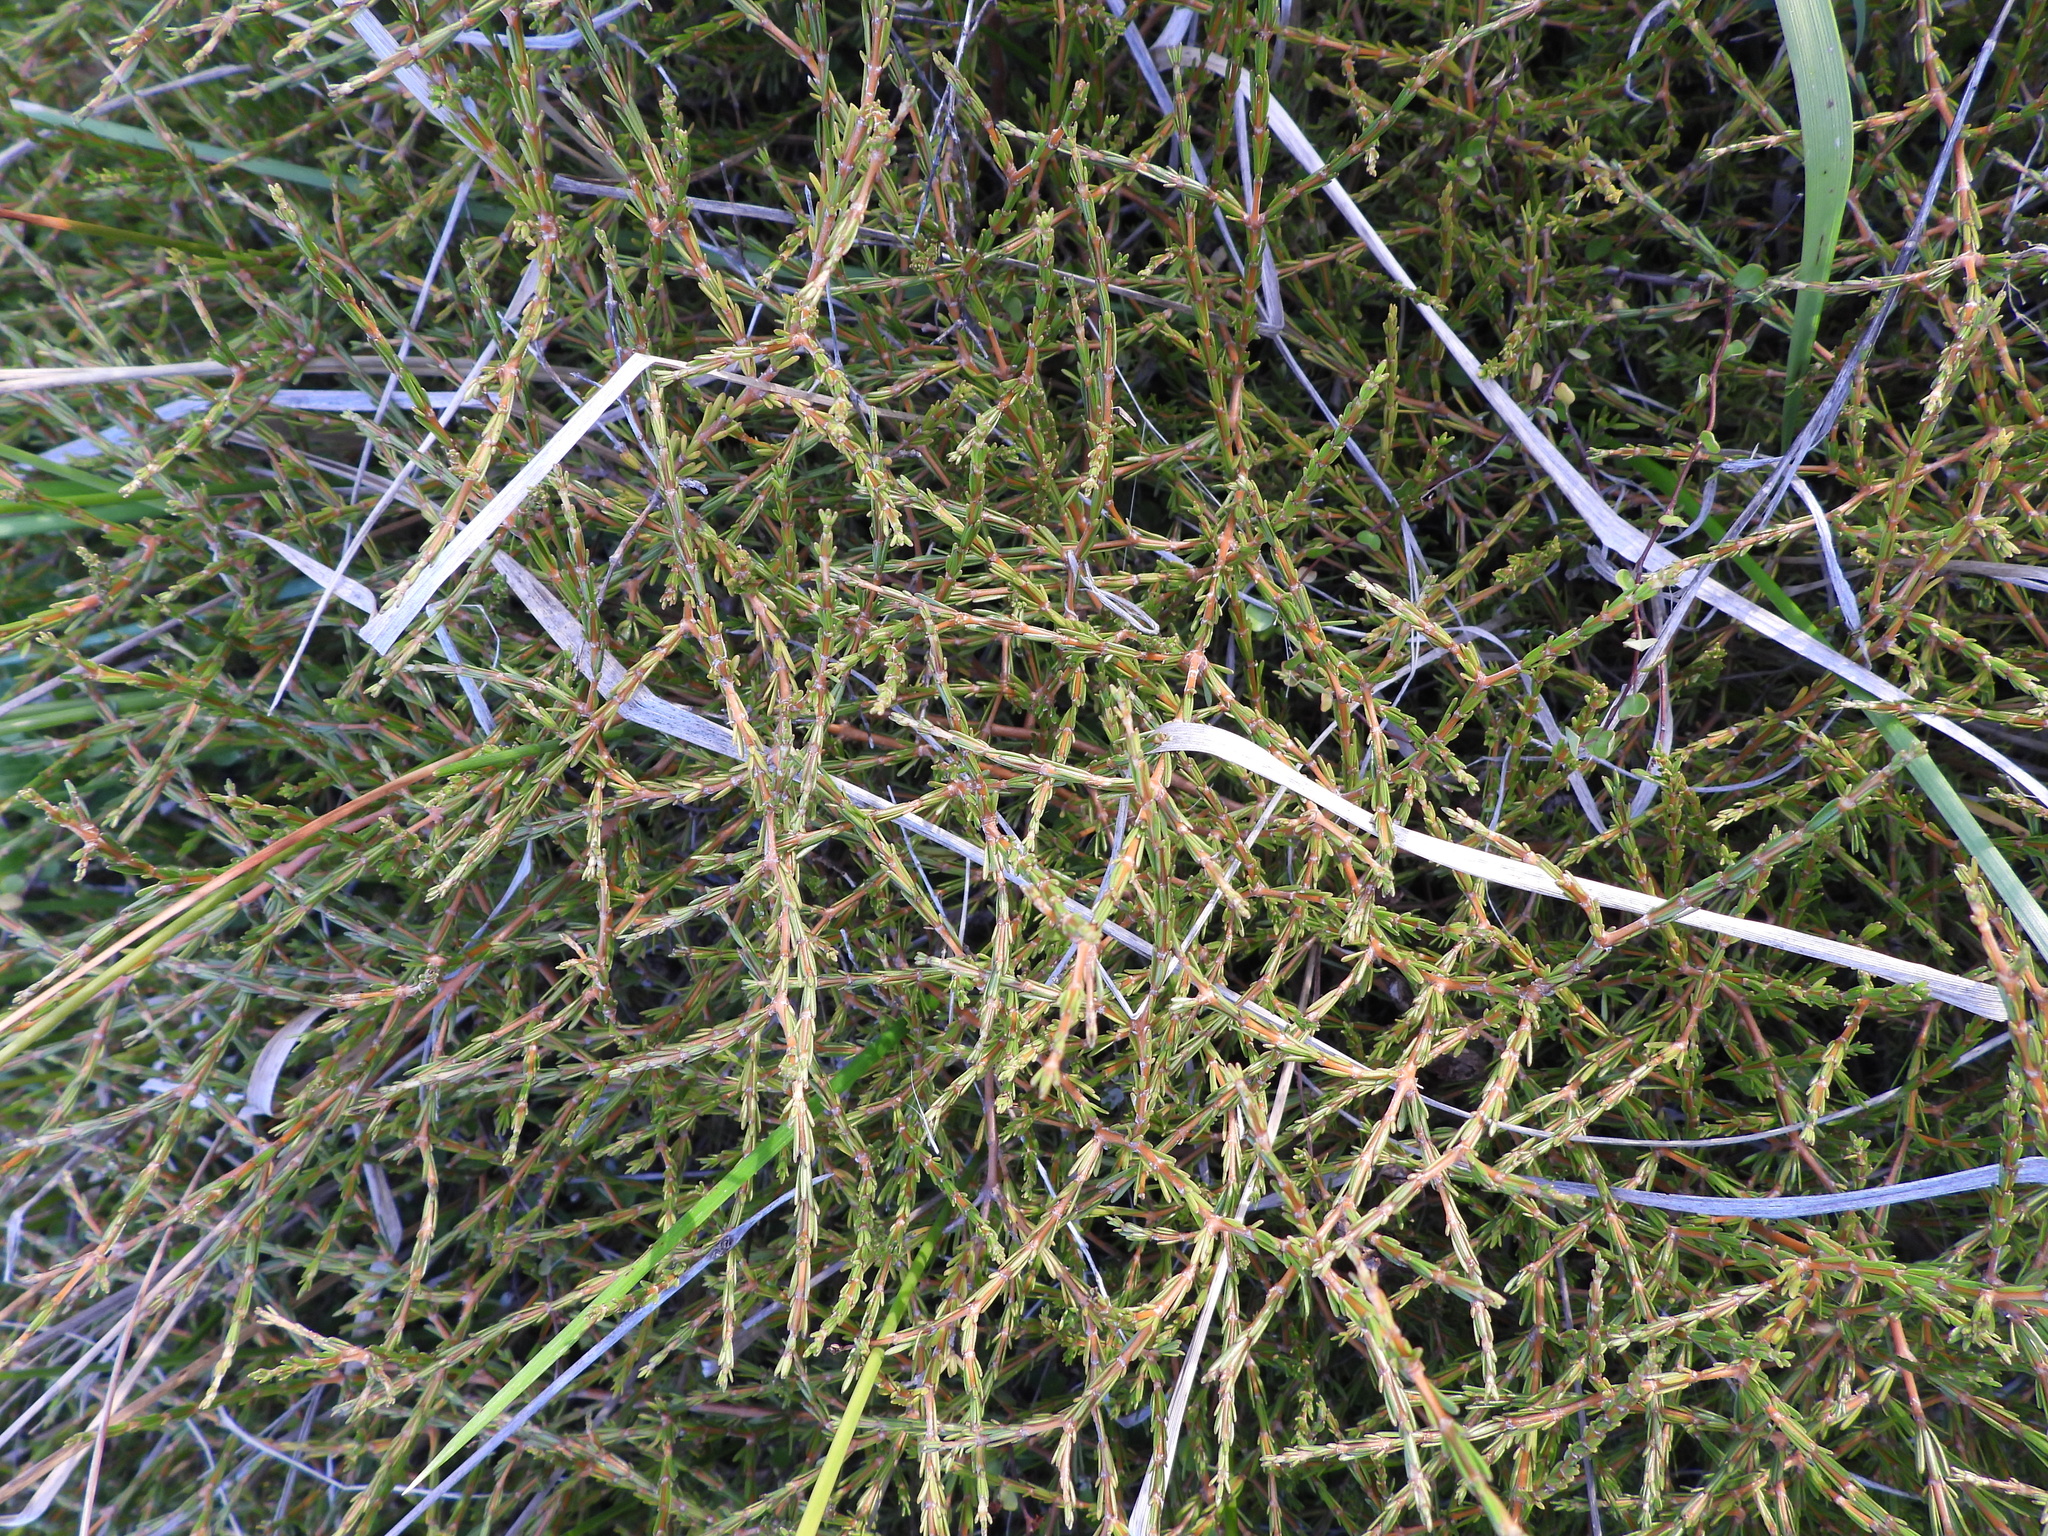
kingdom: Plantae
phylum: Tracheophyta
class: Magnoliopsida
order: Gentianales
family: Rubiaceae
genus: Coprosma
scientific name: Coprosma acerosa
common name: Sand coprosma
